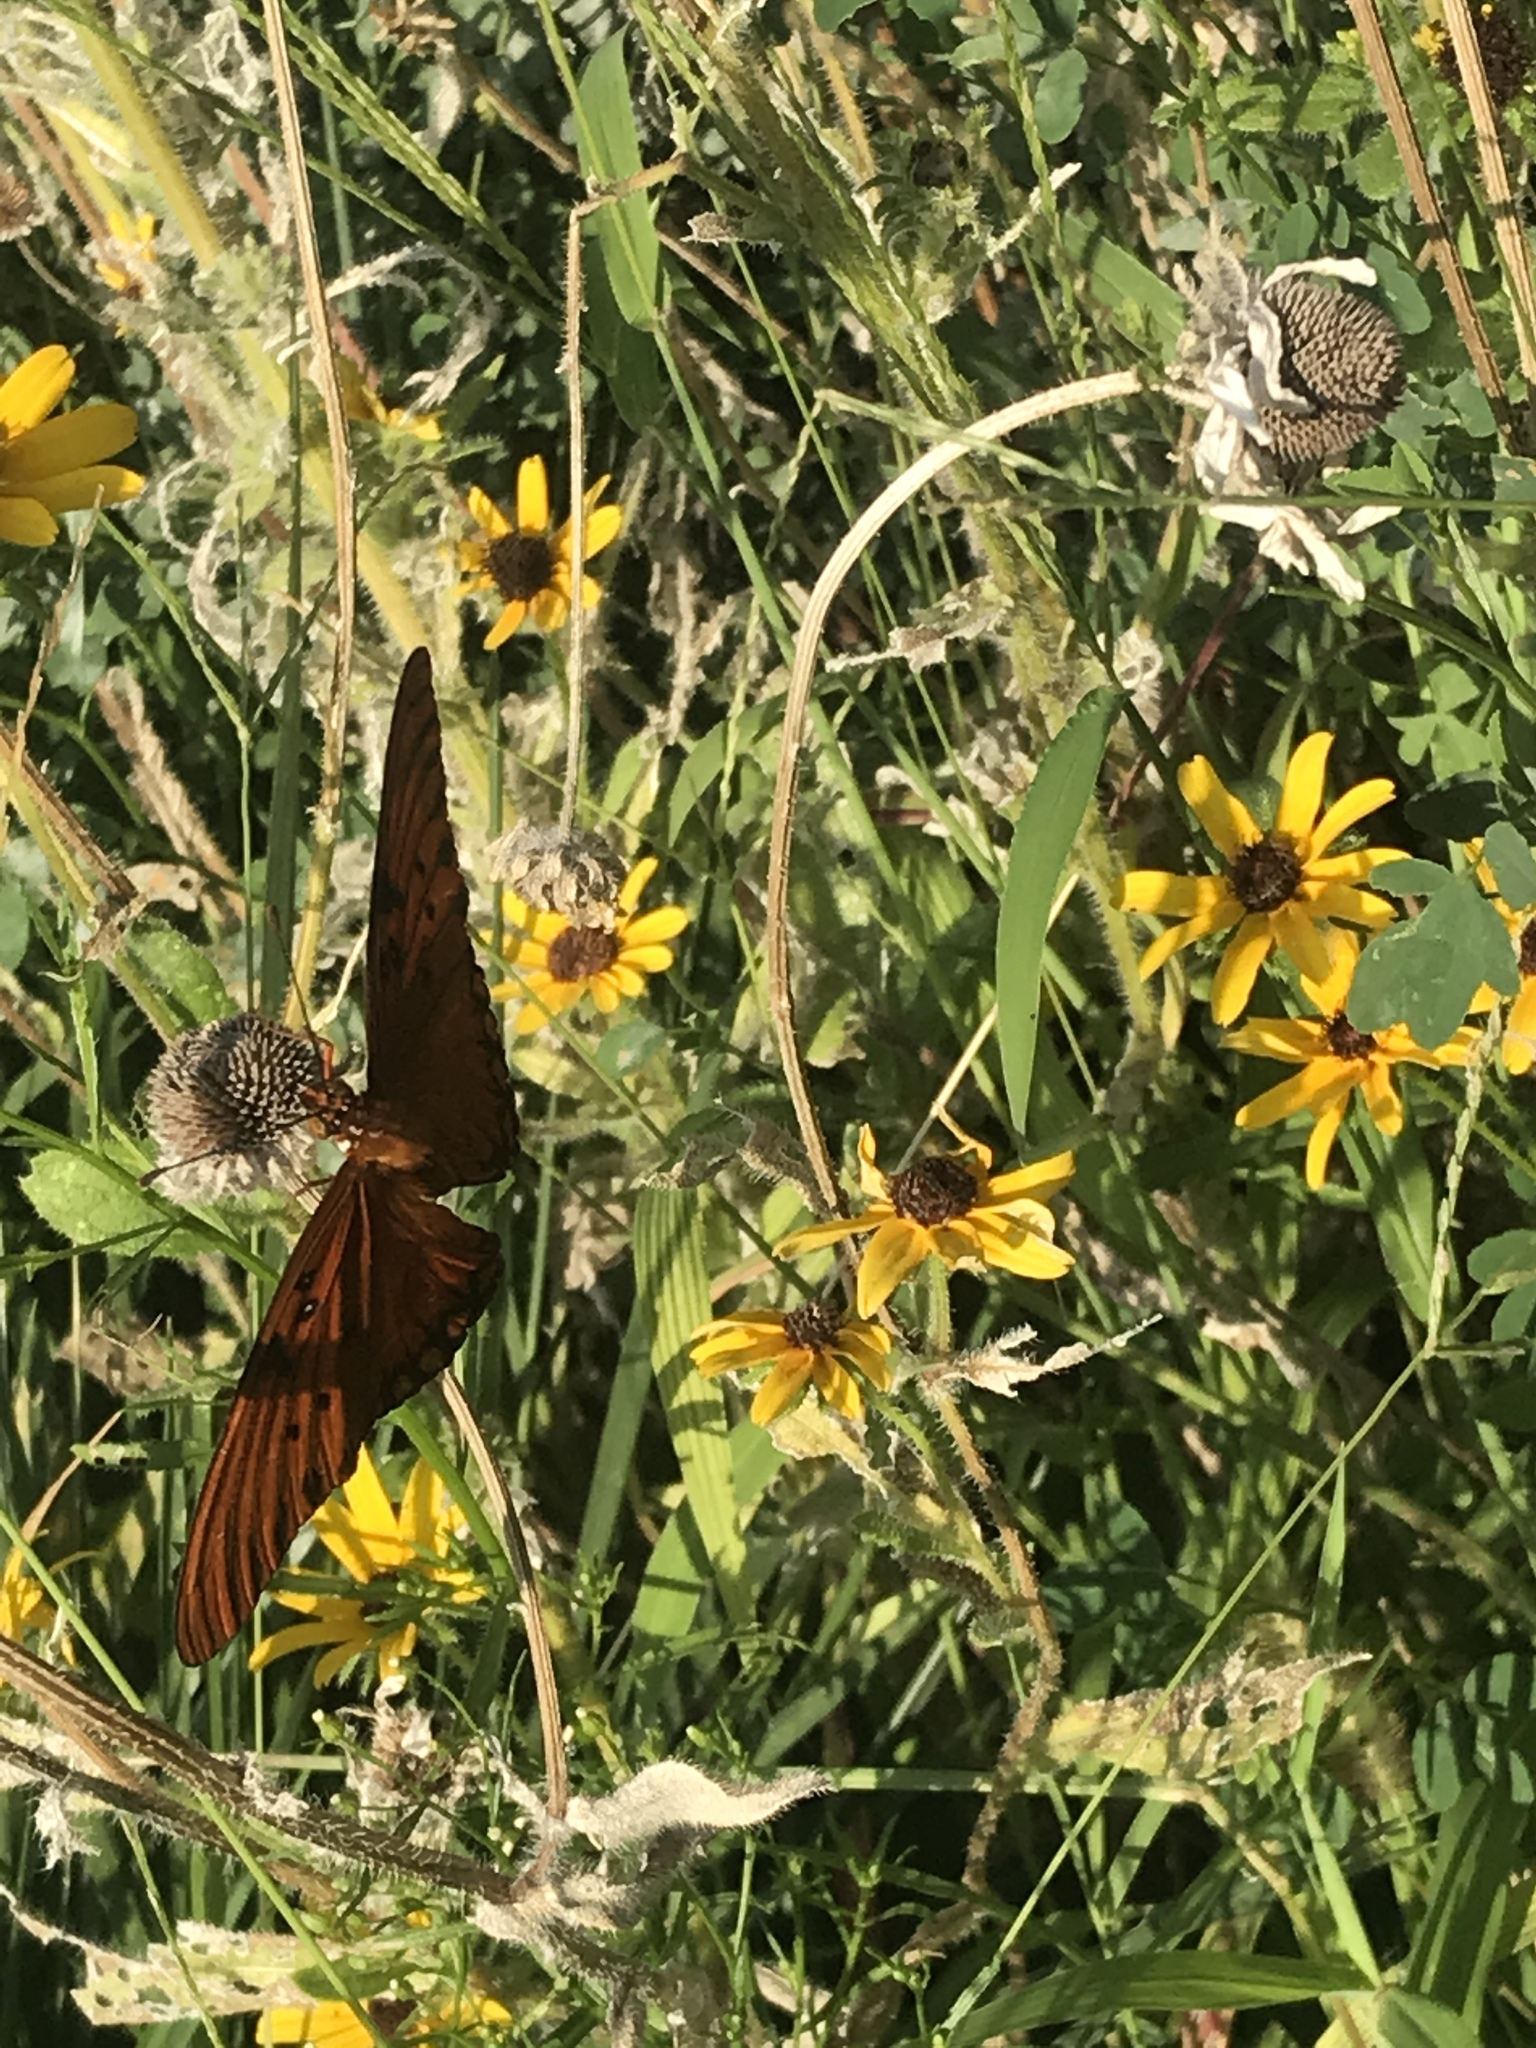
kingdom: Animalia
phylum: Arthropoda
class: Insecta
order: Lepidoptera
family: Nymphalidae
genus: Dione
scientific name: Dione vanillae
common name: Gulf fritillary
